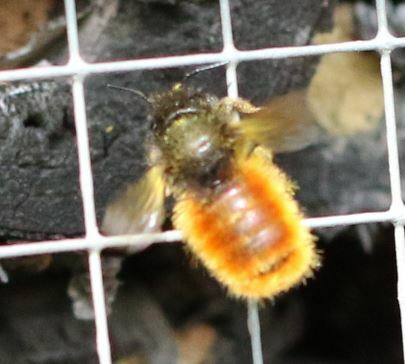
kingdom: Animalia
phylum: Arthropoda
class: Insecta
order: Hymenoptera
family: Megachilidae
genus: Osmia
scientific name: Osmia cornuta
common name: Mason bee
